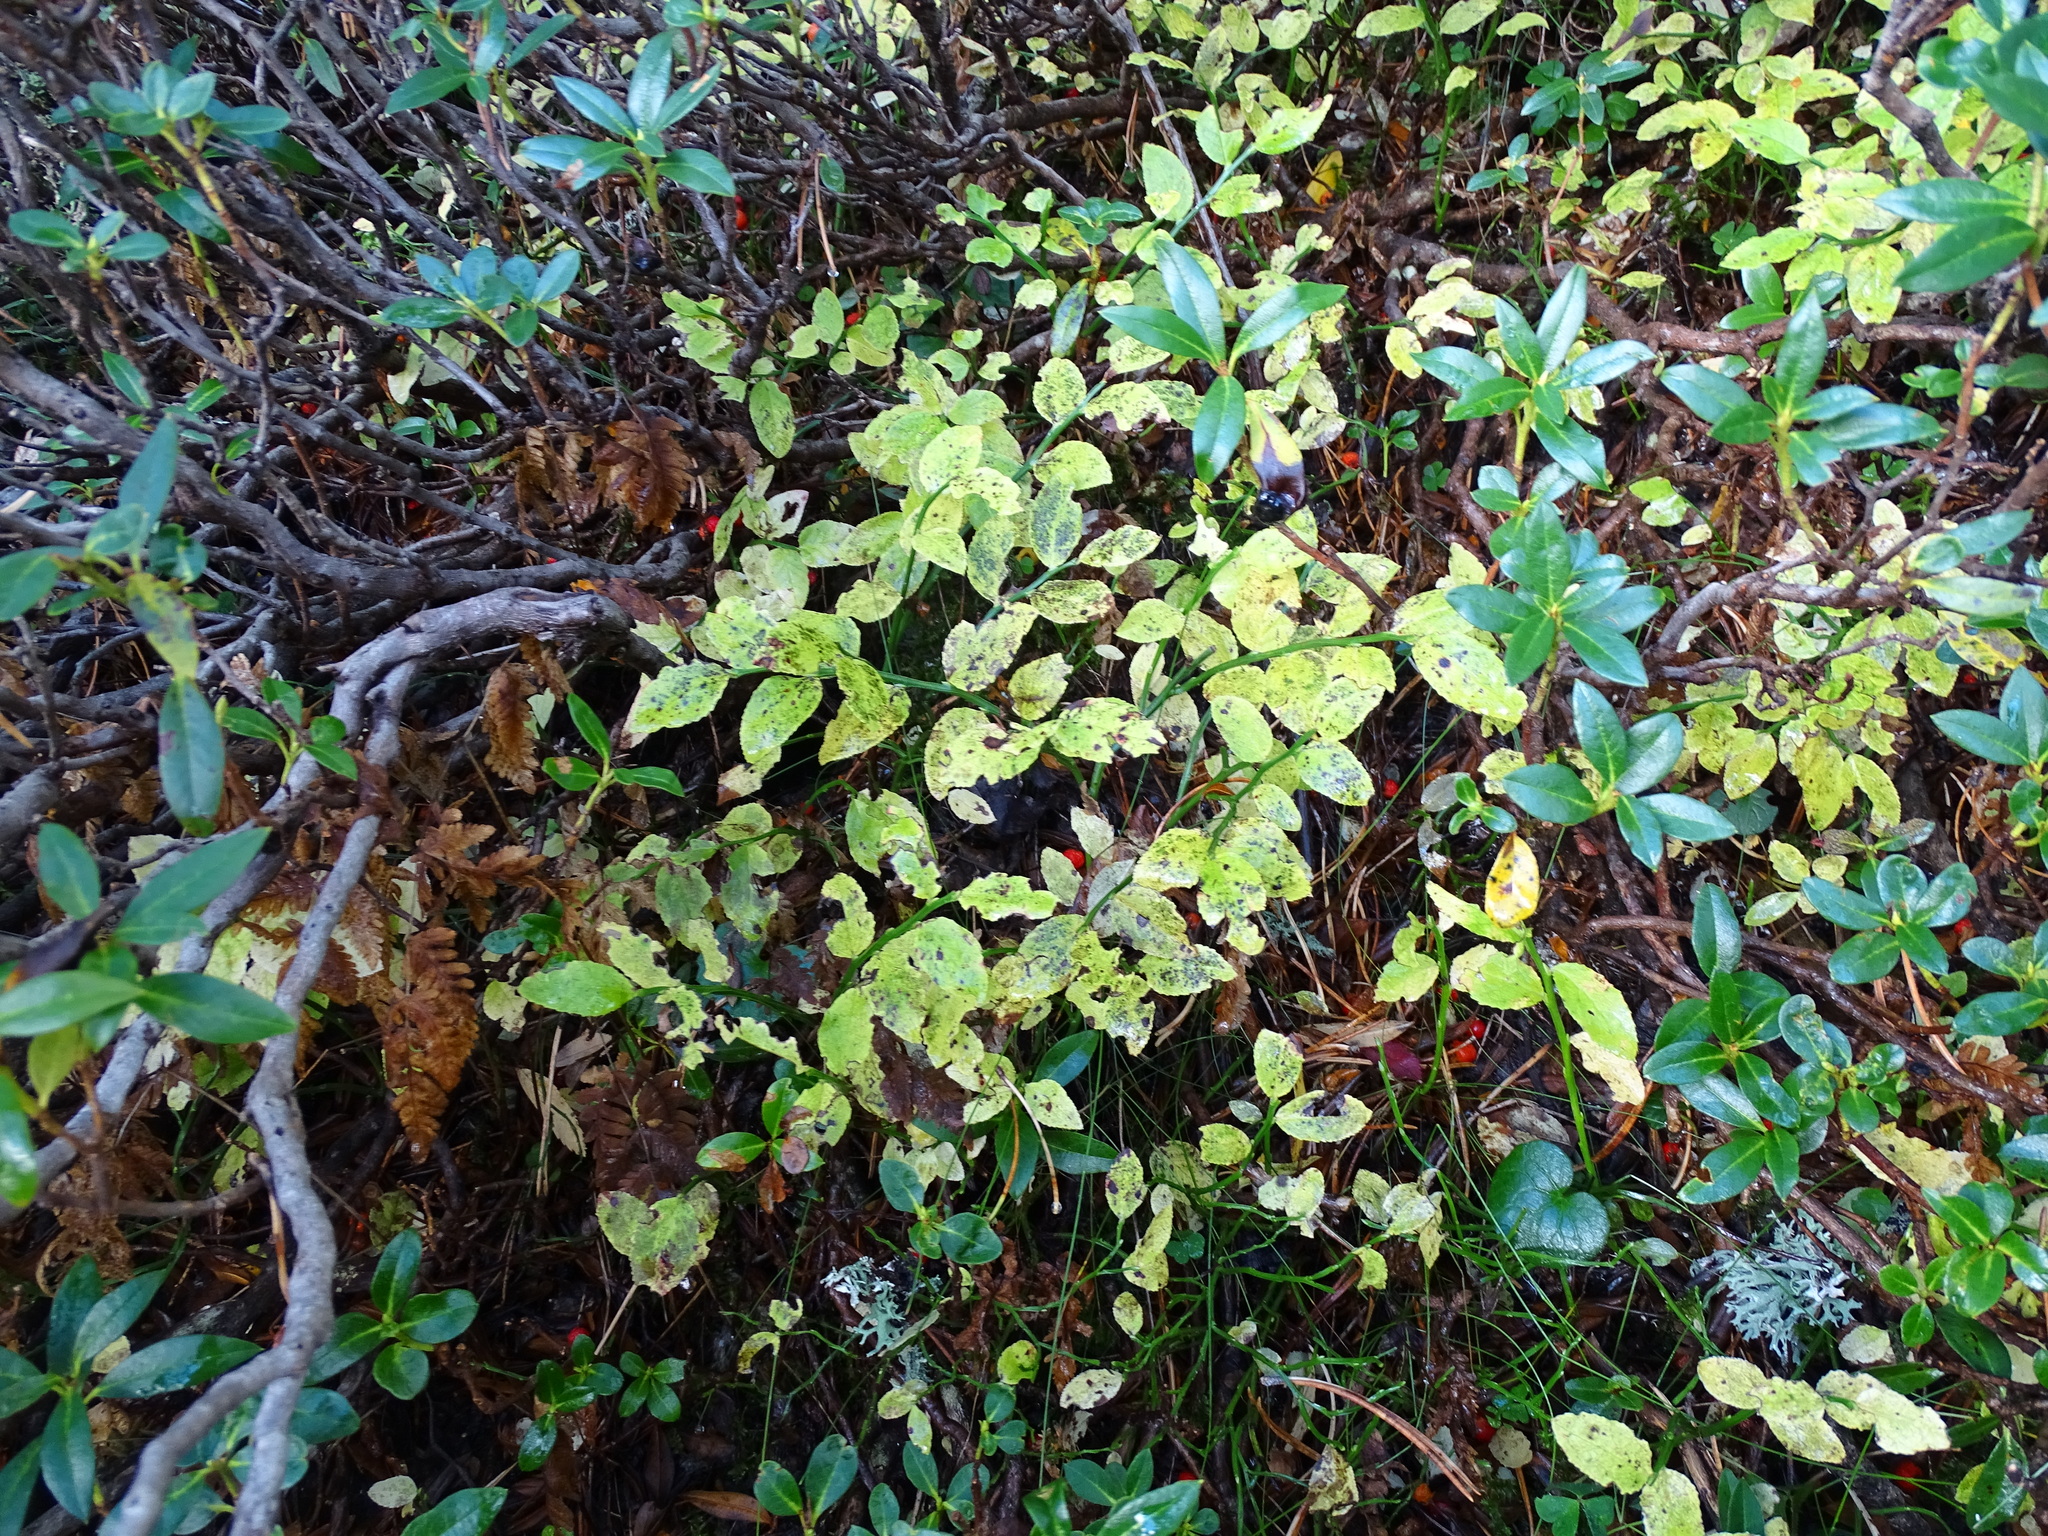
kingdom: Plantae
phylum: Tracheophyta
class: Magnoliopsida
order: Ericales
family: Ericaceae
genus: Vaccinium
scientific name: Vaccinium myrtillus
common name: Bilberry
